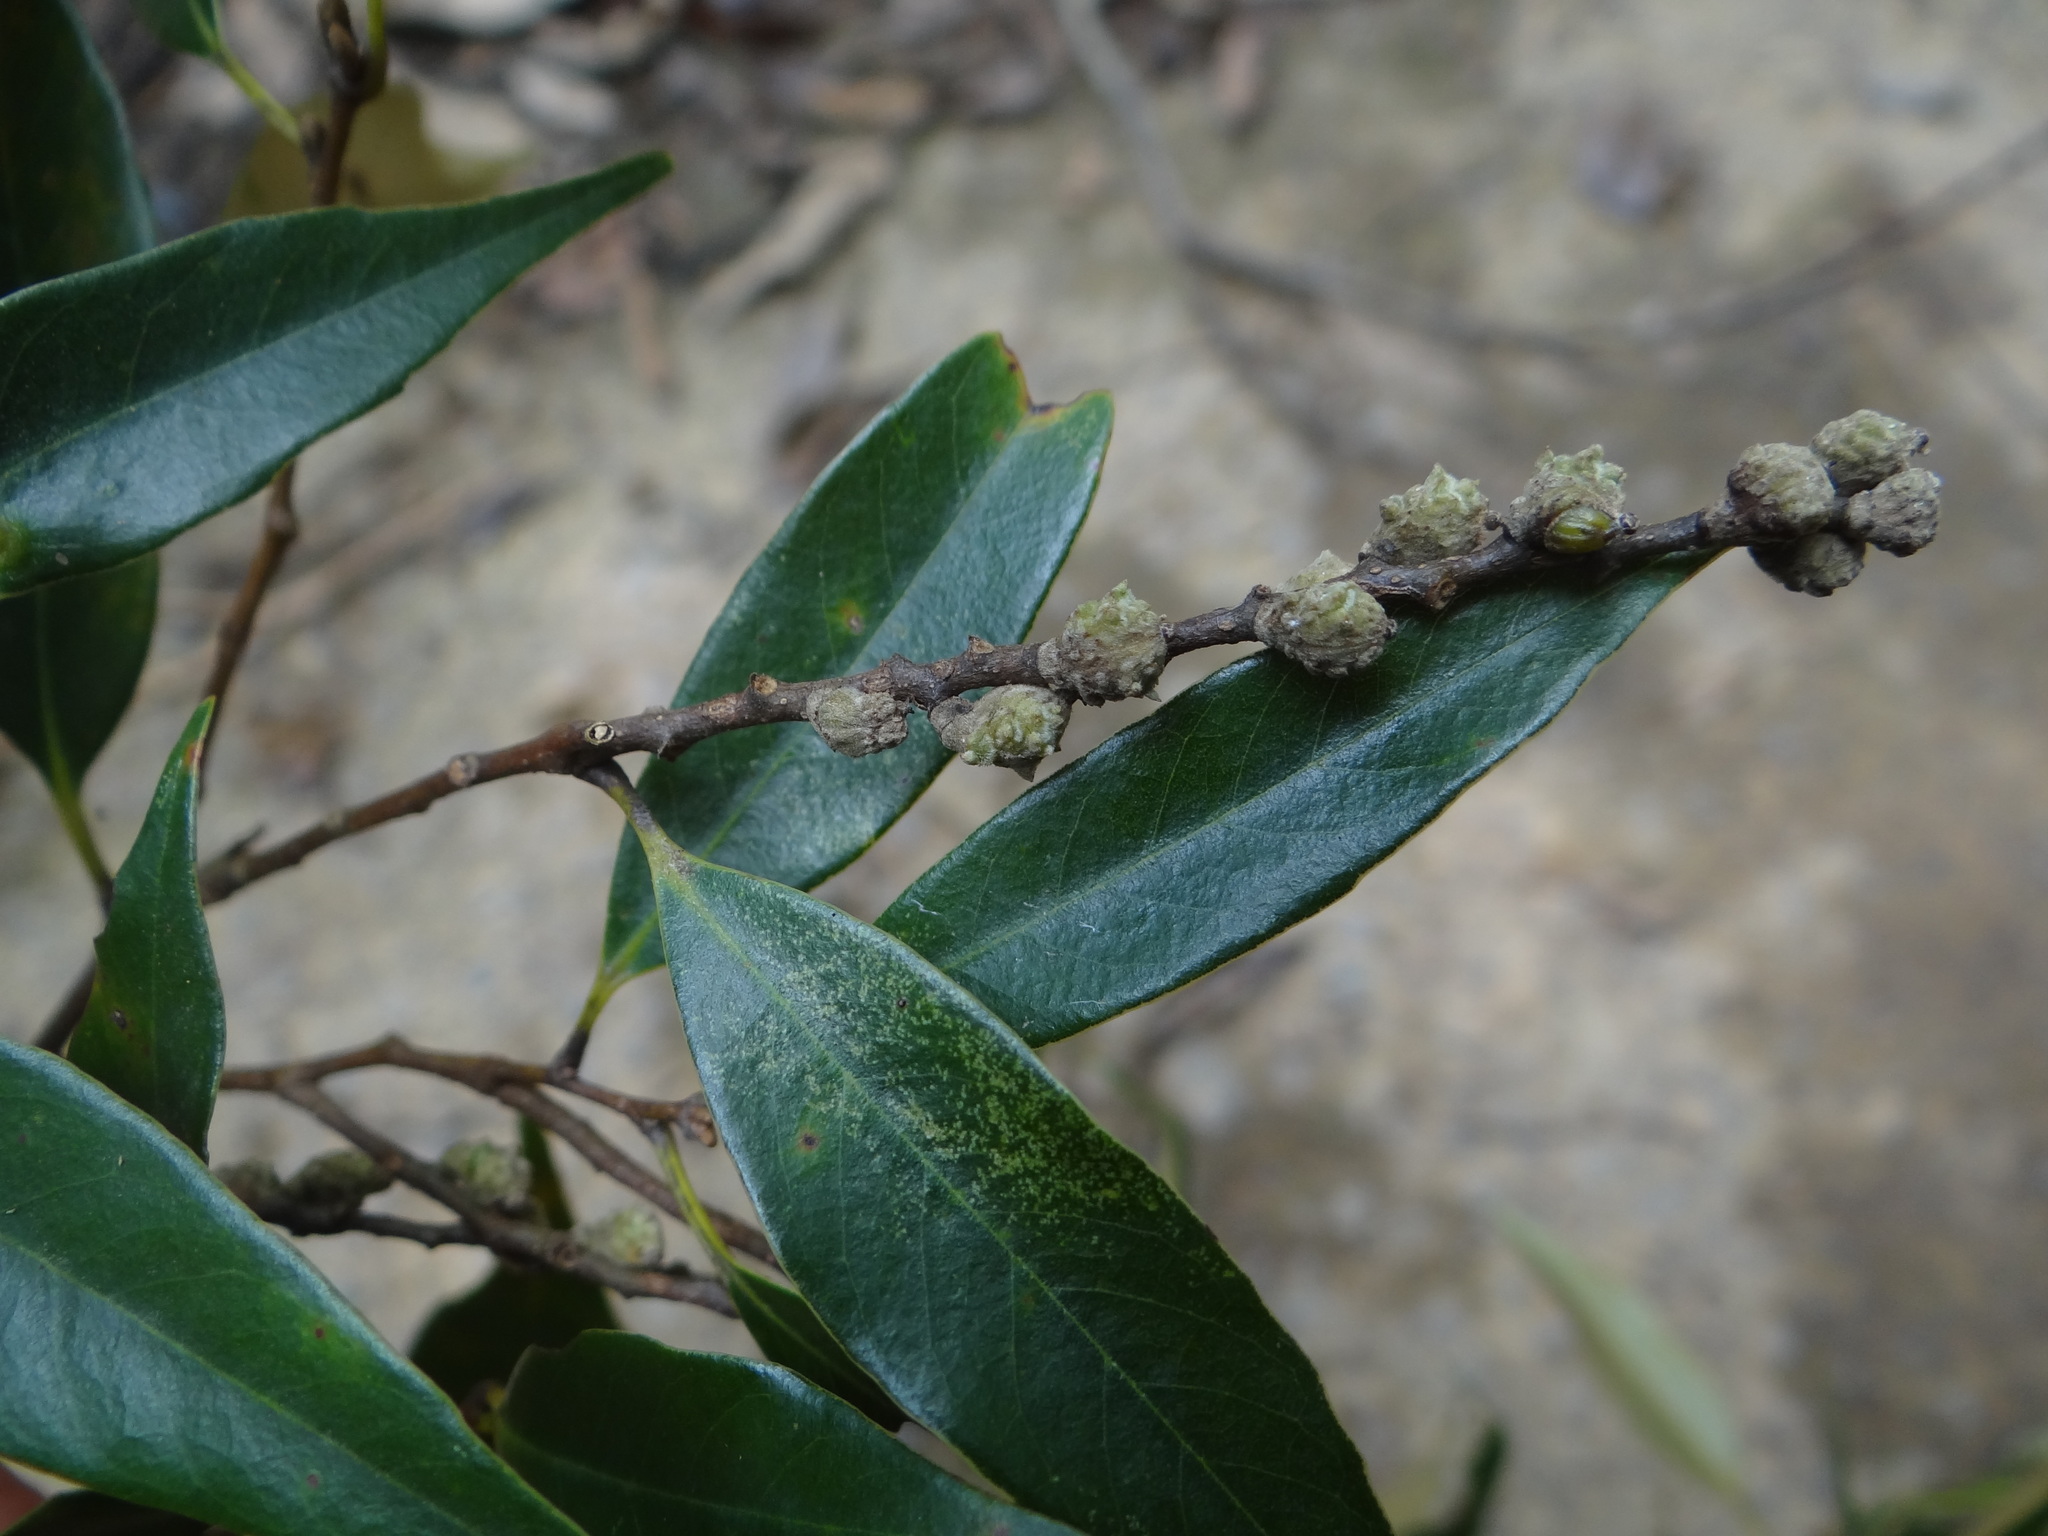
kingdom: Plantae
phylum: Tracheophyta
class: Magnoliopsida
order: Fagales
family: Fagaceae
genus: Castanopsis
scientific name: Castanopsis carlesii
